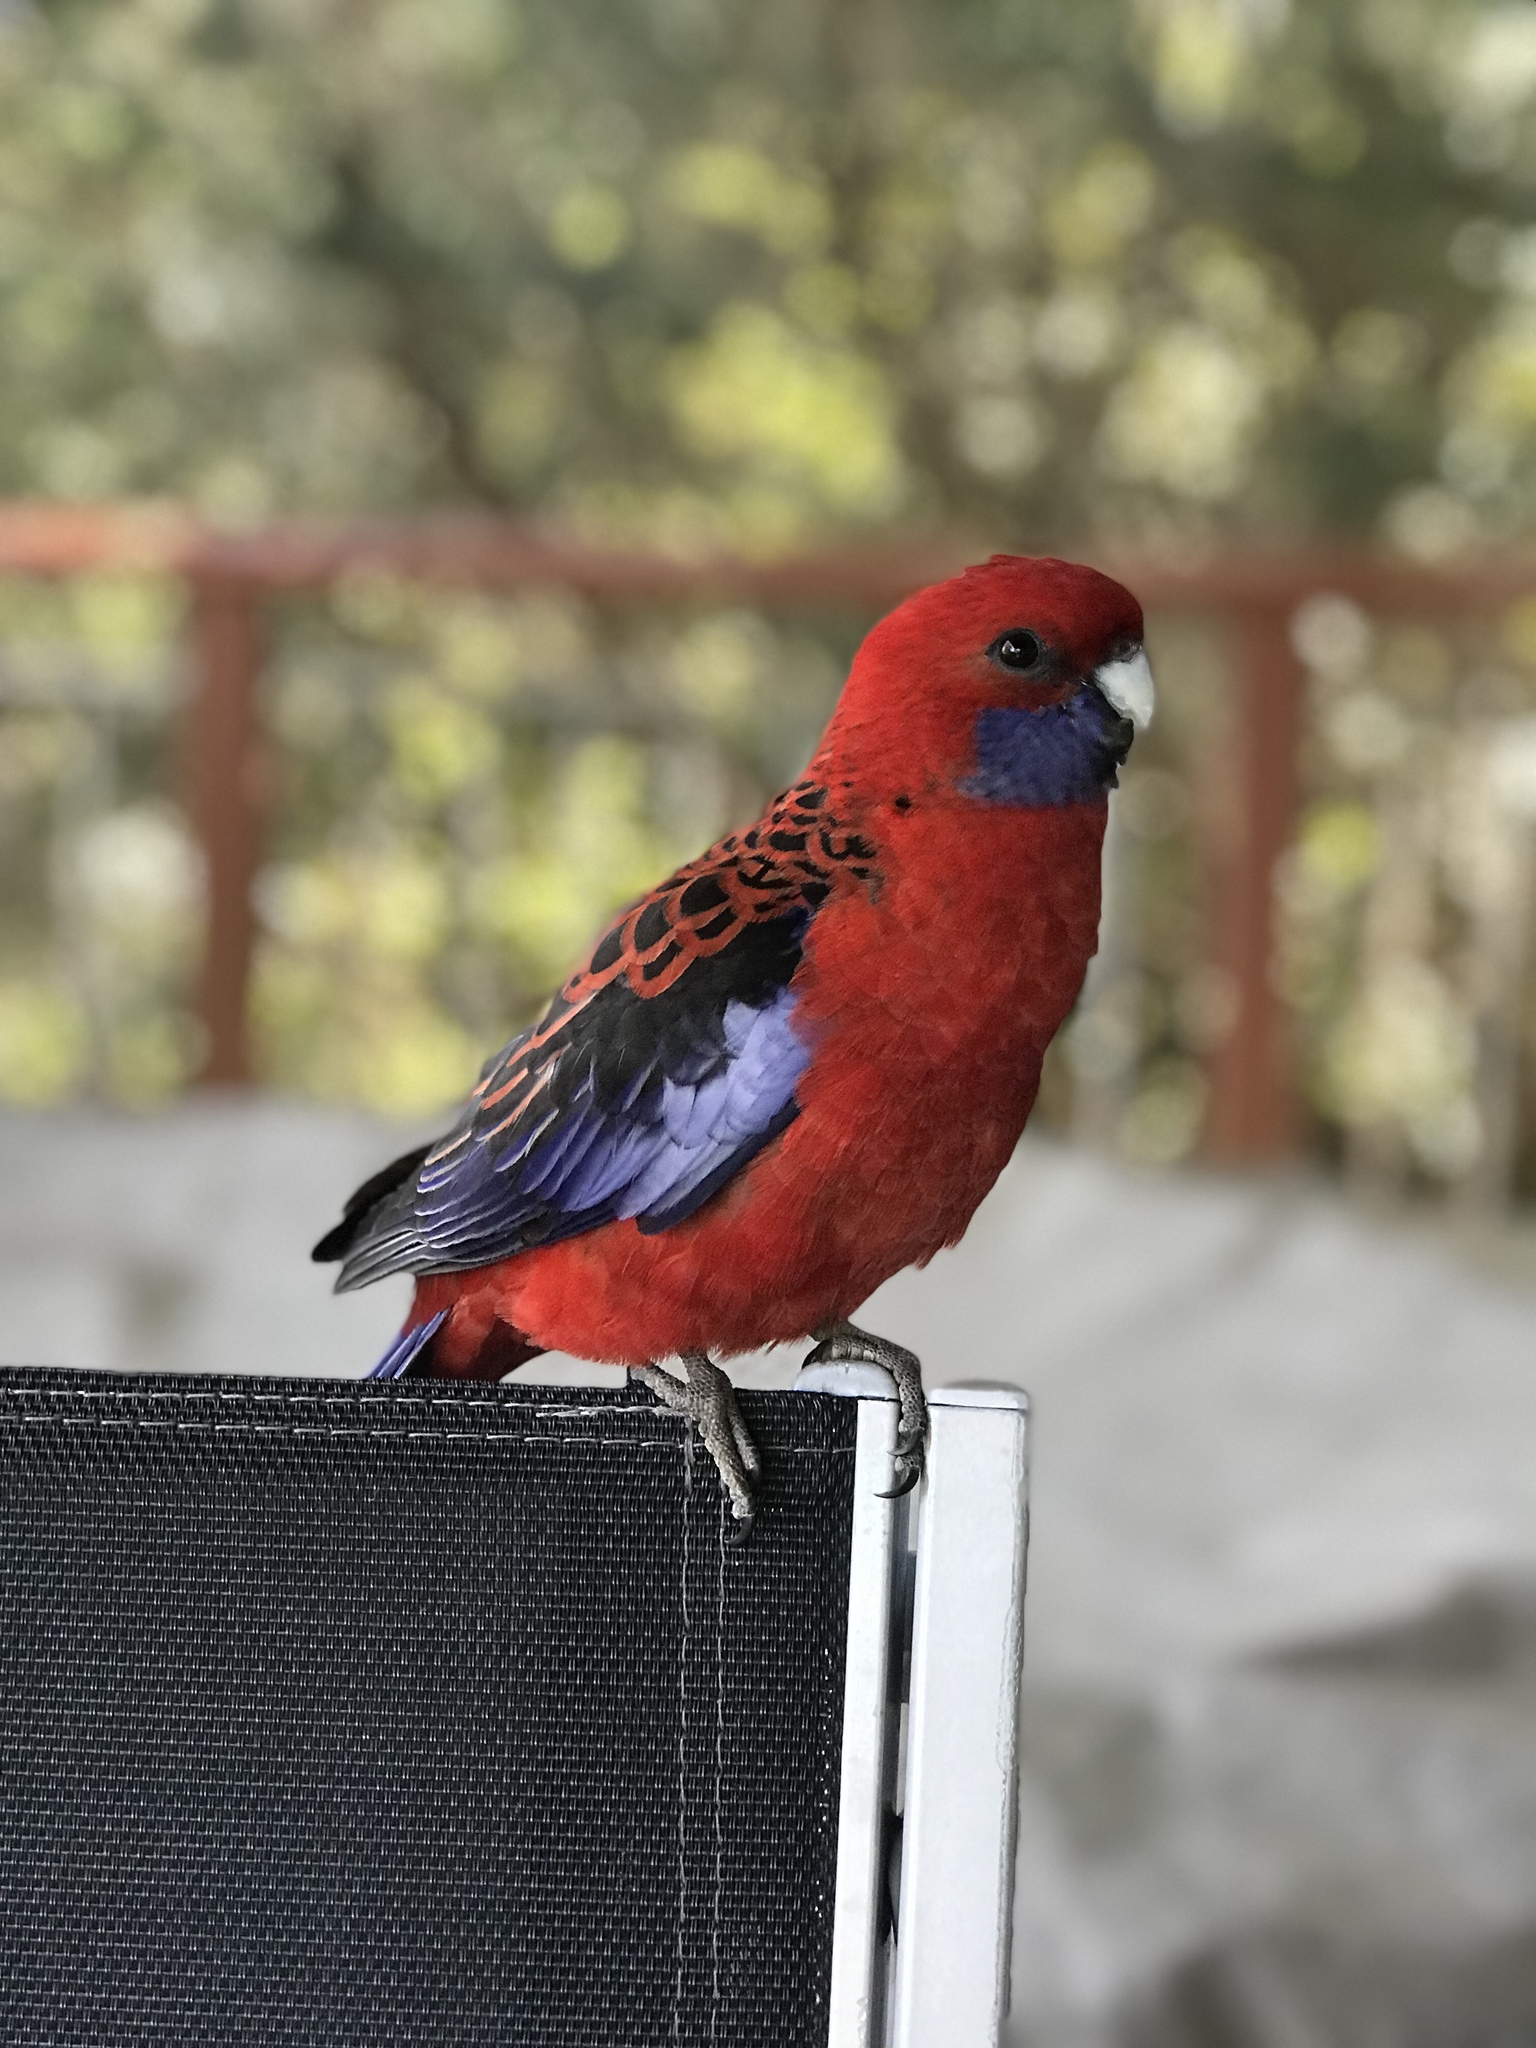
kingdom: Animalia
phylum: Chordata
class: Aves
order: Psittaciformes
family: Psittacidae
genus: Platycercus
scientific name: Platycercus elegans
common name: Crimson rosella
